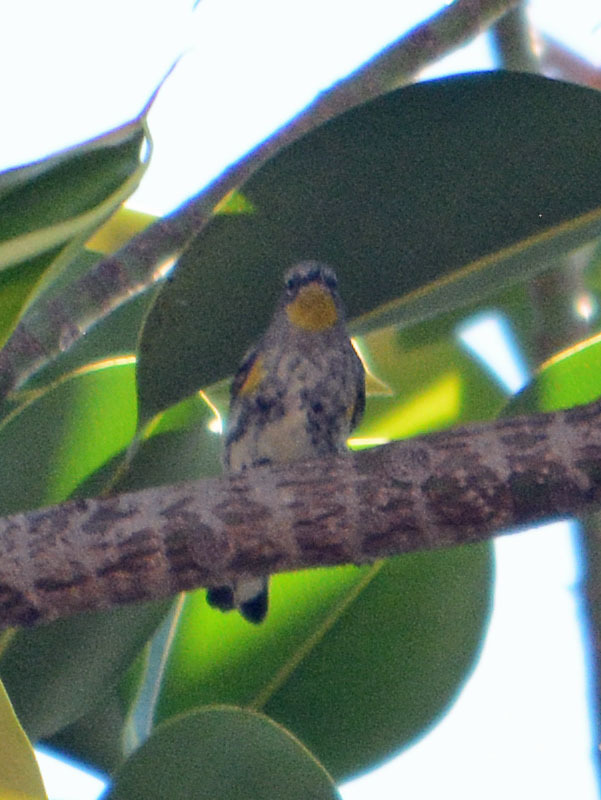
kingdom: Animalia
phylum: Chordata
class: Aves
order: Passeriformes
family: Parulidae
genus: Setophaga
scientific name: Setophaga auduboni
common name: Audubon's warbler
